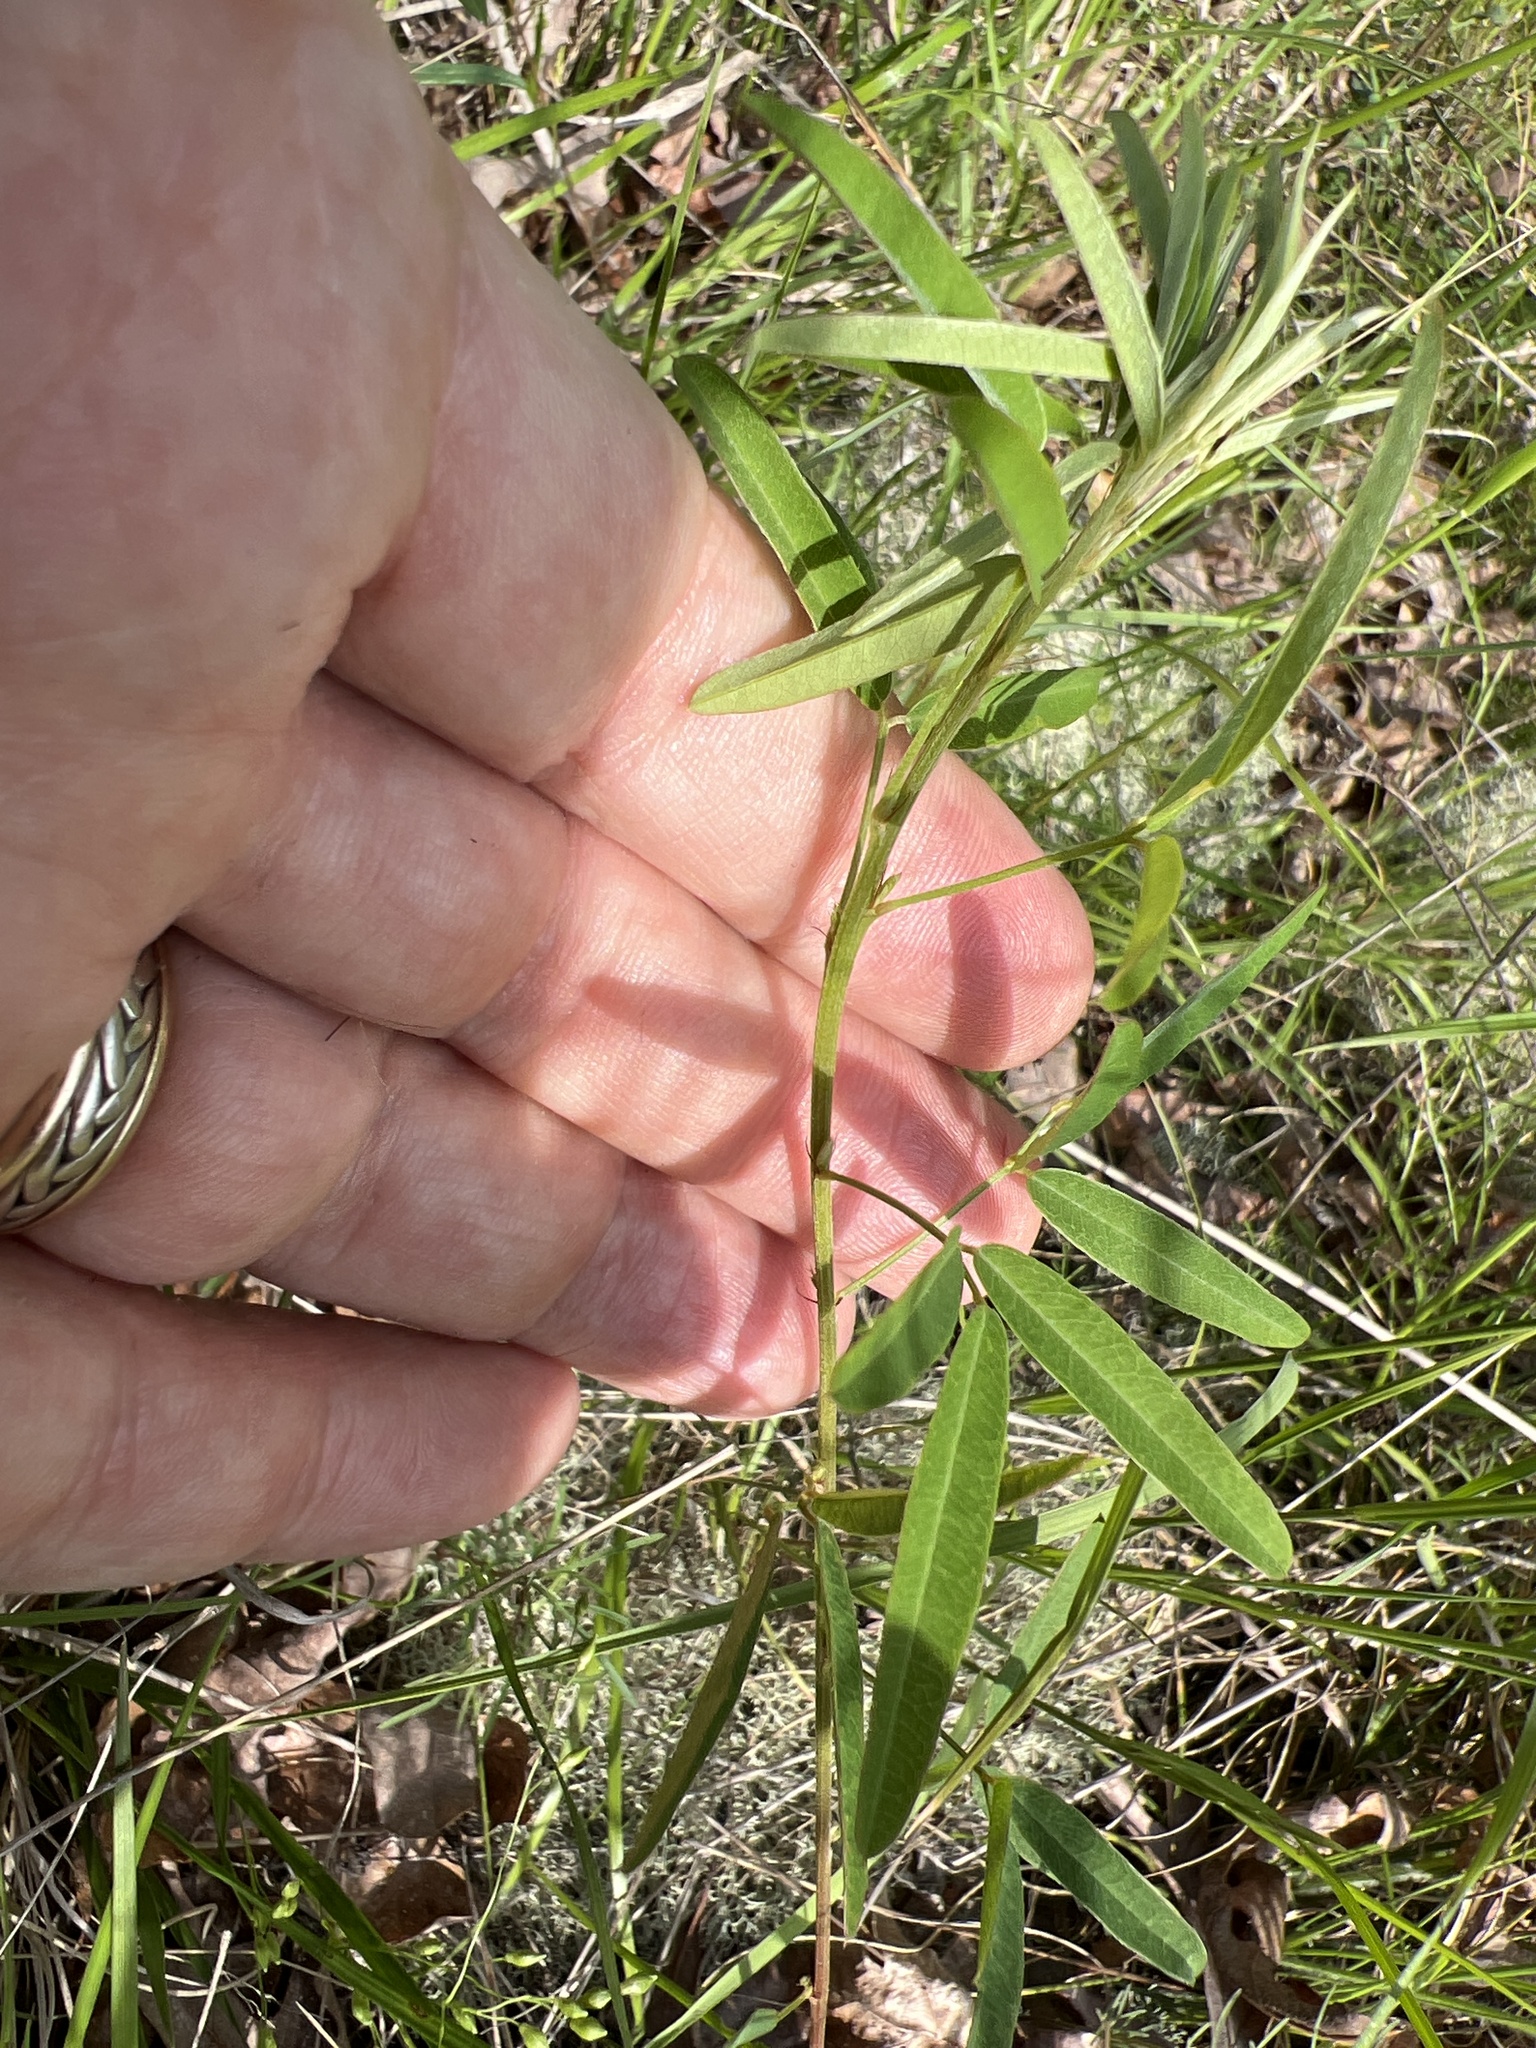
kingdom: Plantae
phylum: Tracheophyta
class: Magnoliopsida
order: Fabales
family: Fabaceae
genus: Lespedeza
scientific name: Lespedeza virginica
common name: Slender bush-clover
